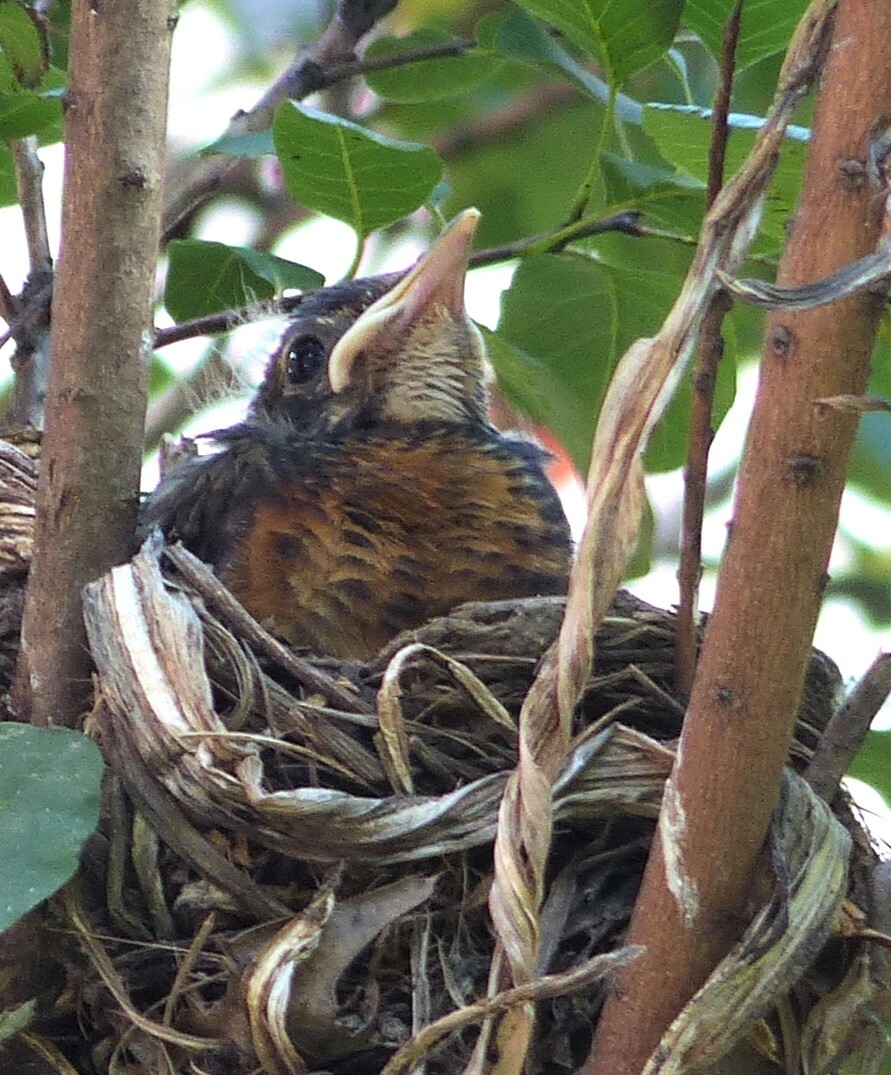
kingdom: Animalia
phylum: Chordata
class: Aves
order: Passeriformes
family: Turdidae
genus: Turdus
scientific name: Turdus migratorius
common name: American robin
